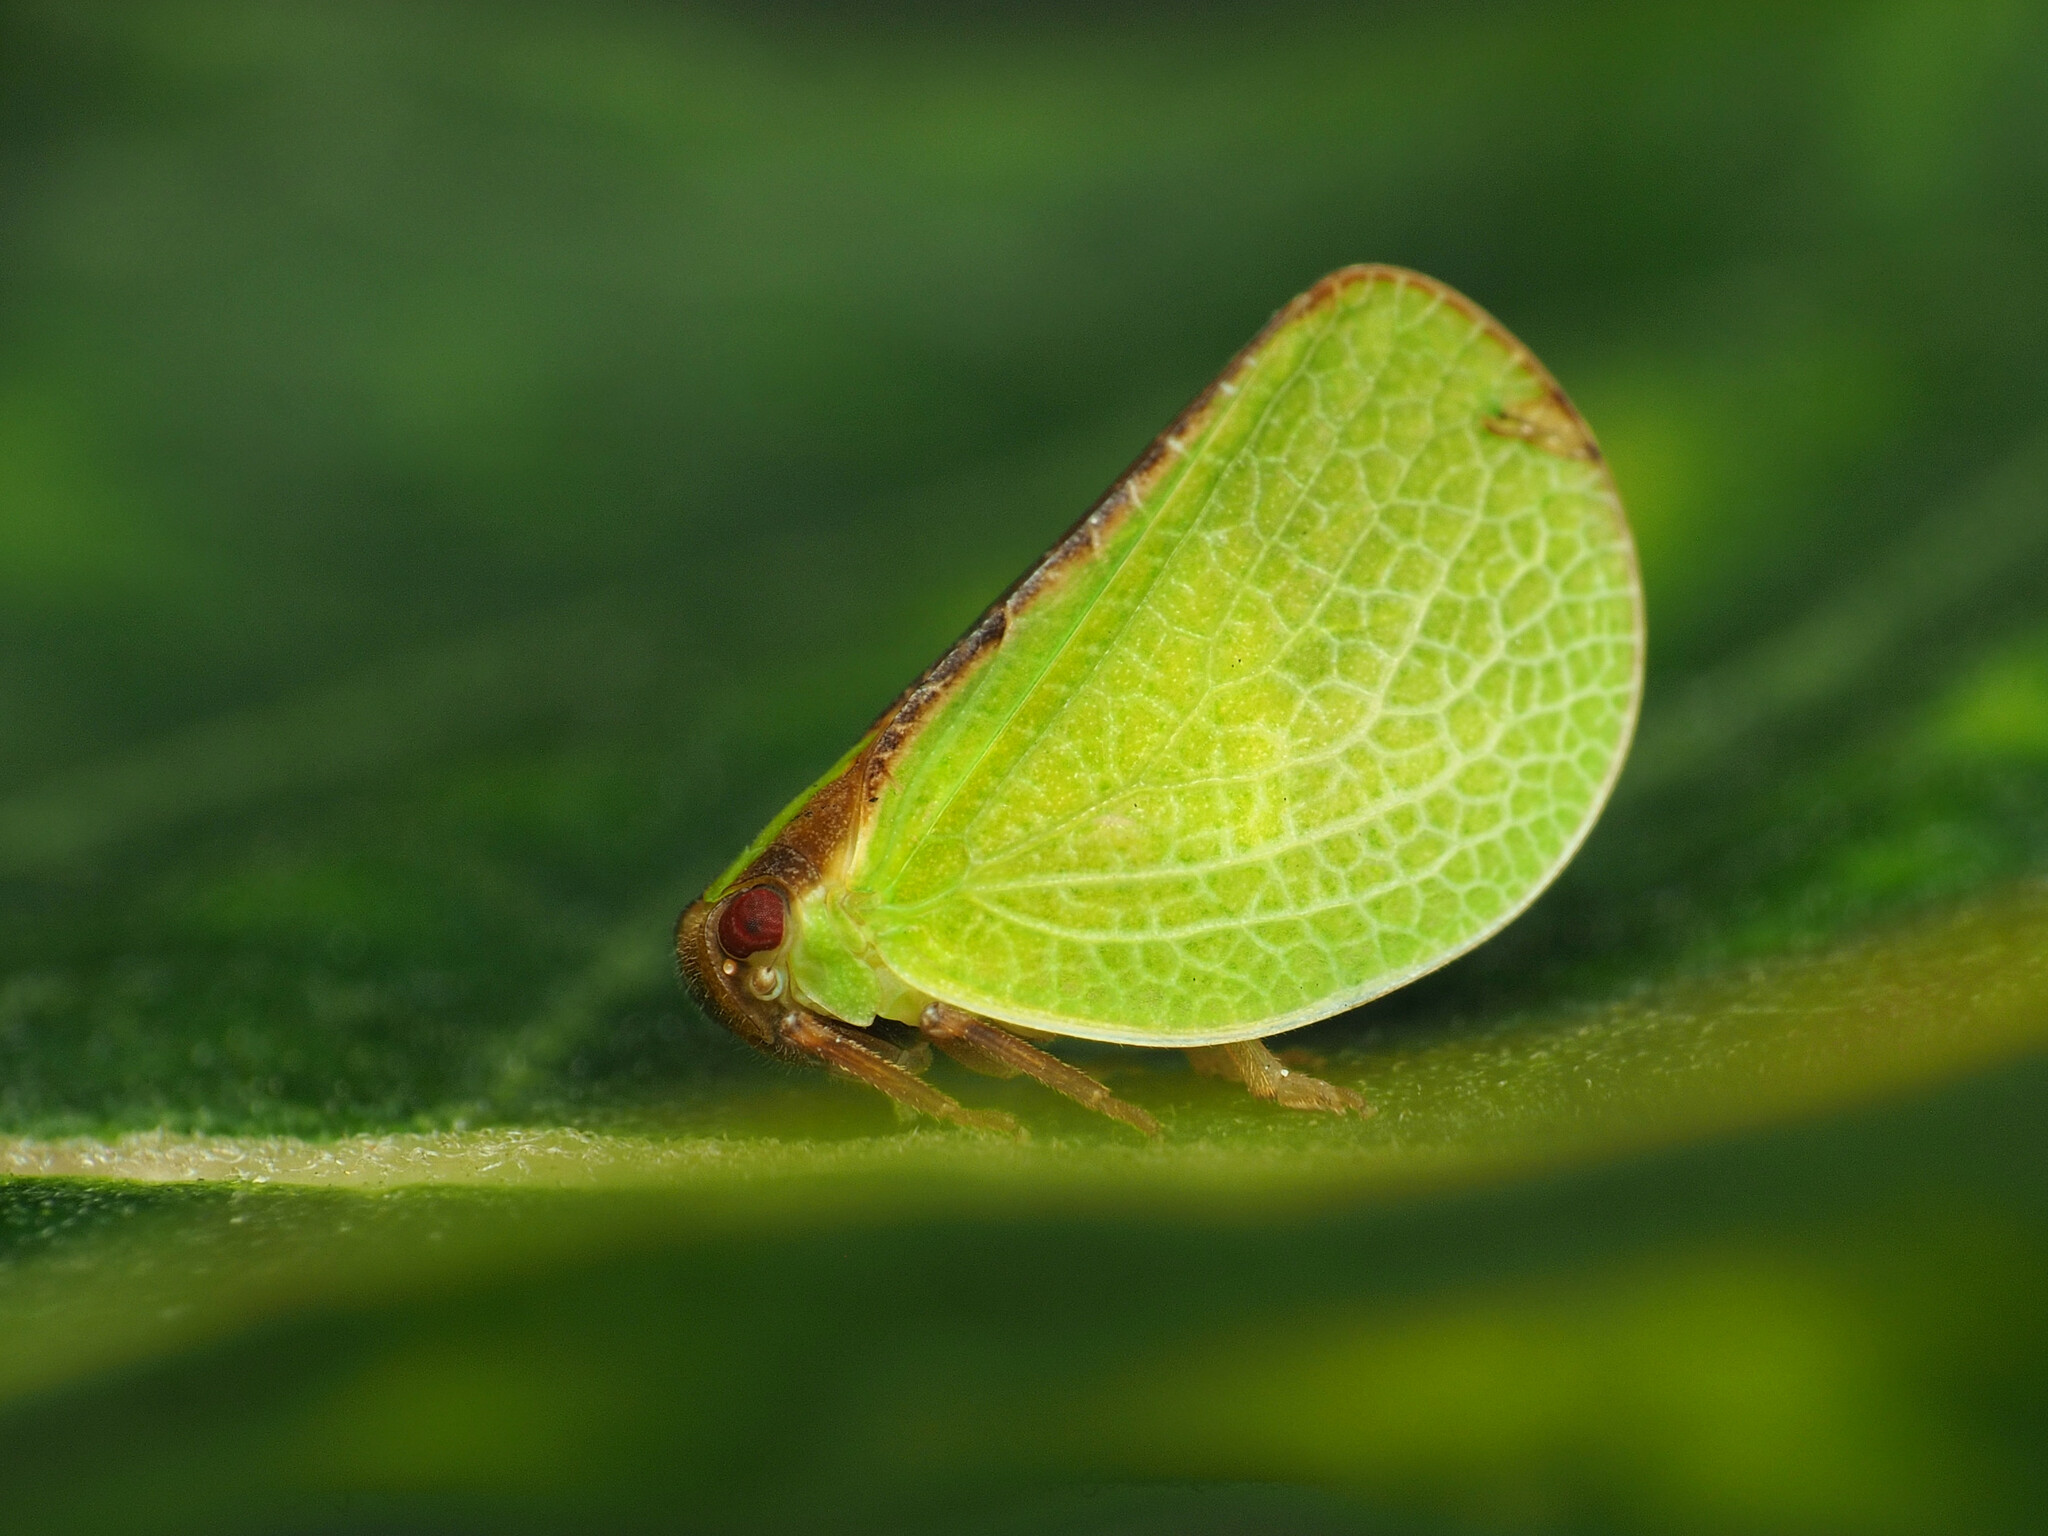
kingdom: Animalia
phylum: Arthropoda
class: Insecta
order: Hemiptera
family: Acanaloniidae
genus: Acanalonia
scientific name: Acanalonia bivittata
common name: Two-striped planthopper
